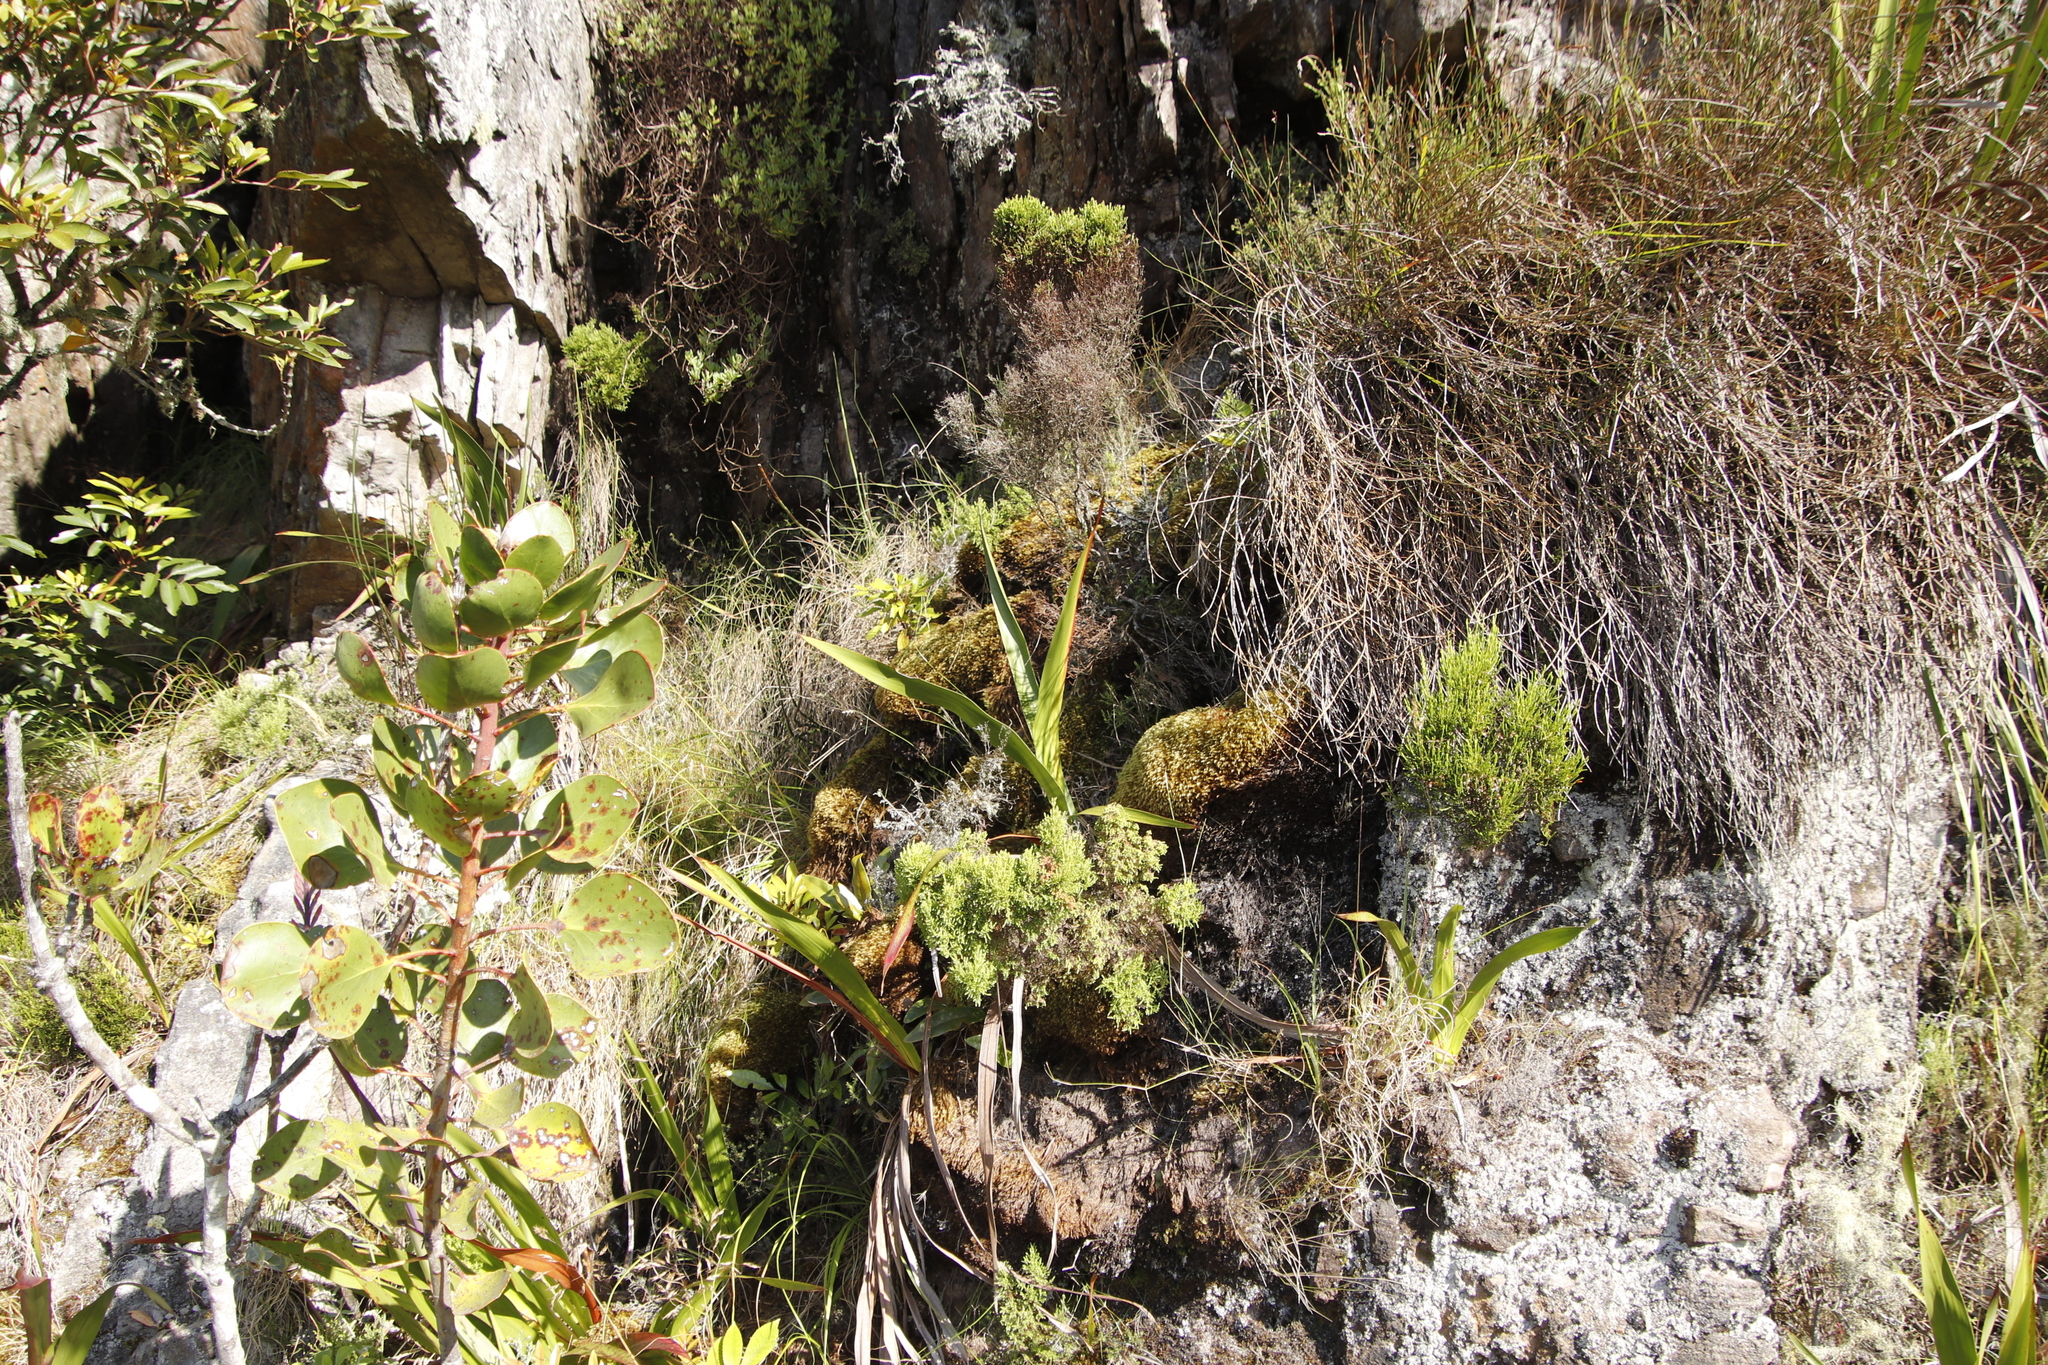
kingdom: Plantae
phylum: Tracheophyta
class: Magnoliopsida
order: Proteales
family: Proteaceae
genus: Protea
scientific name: Protea cynaroides
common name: King protea
